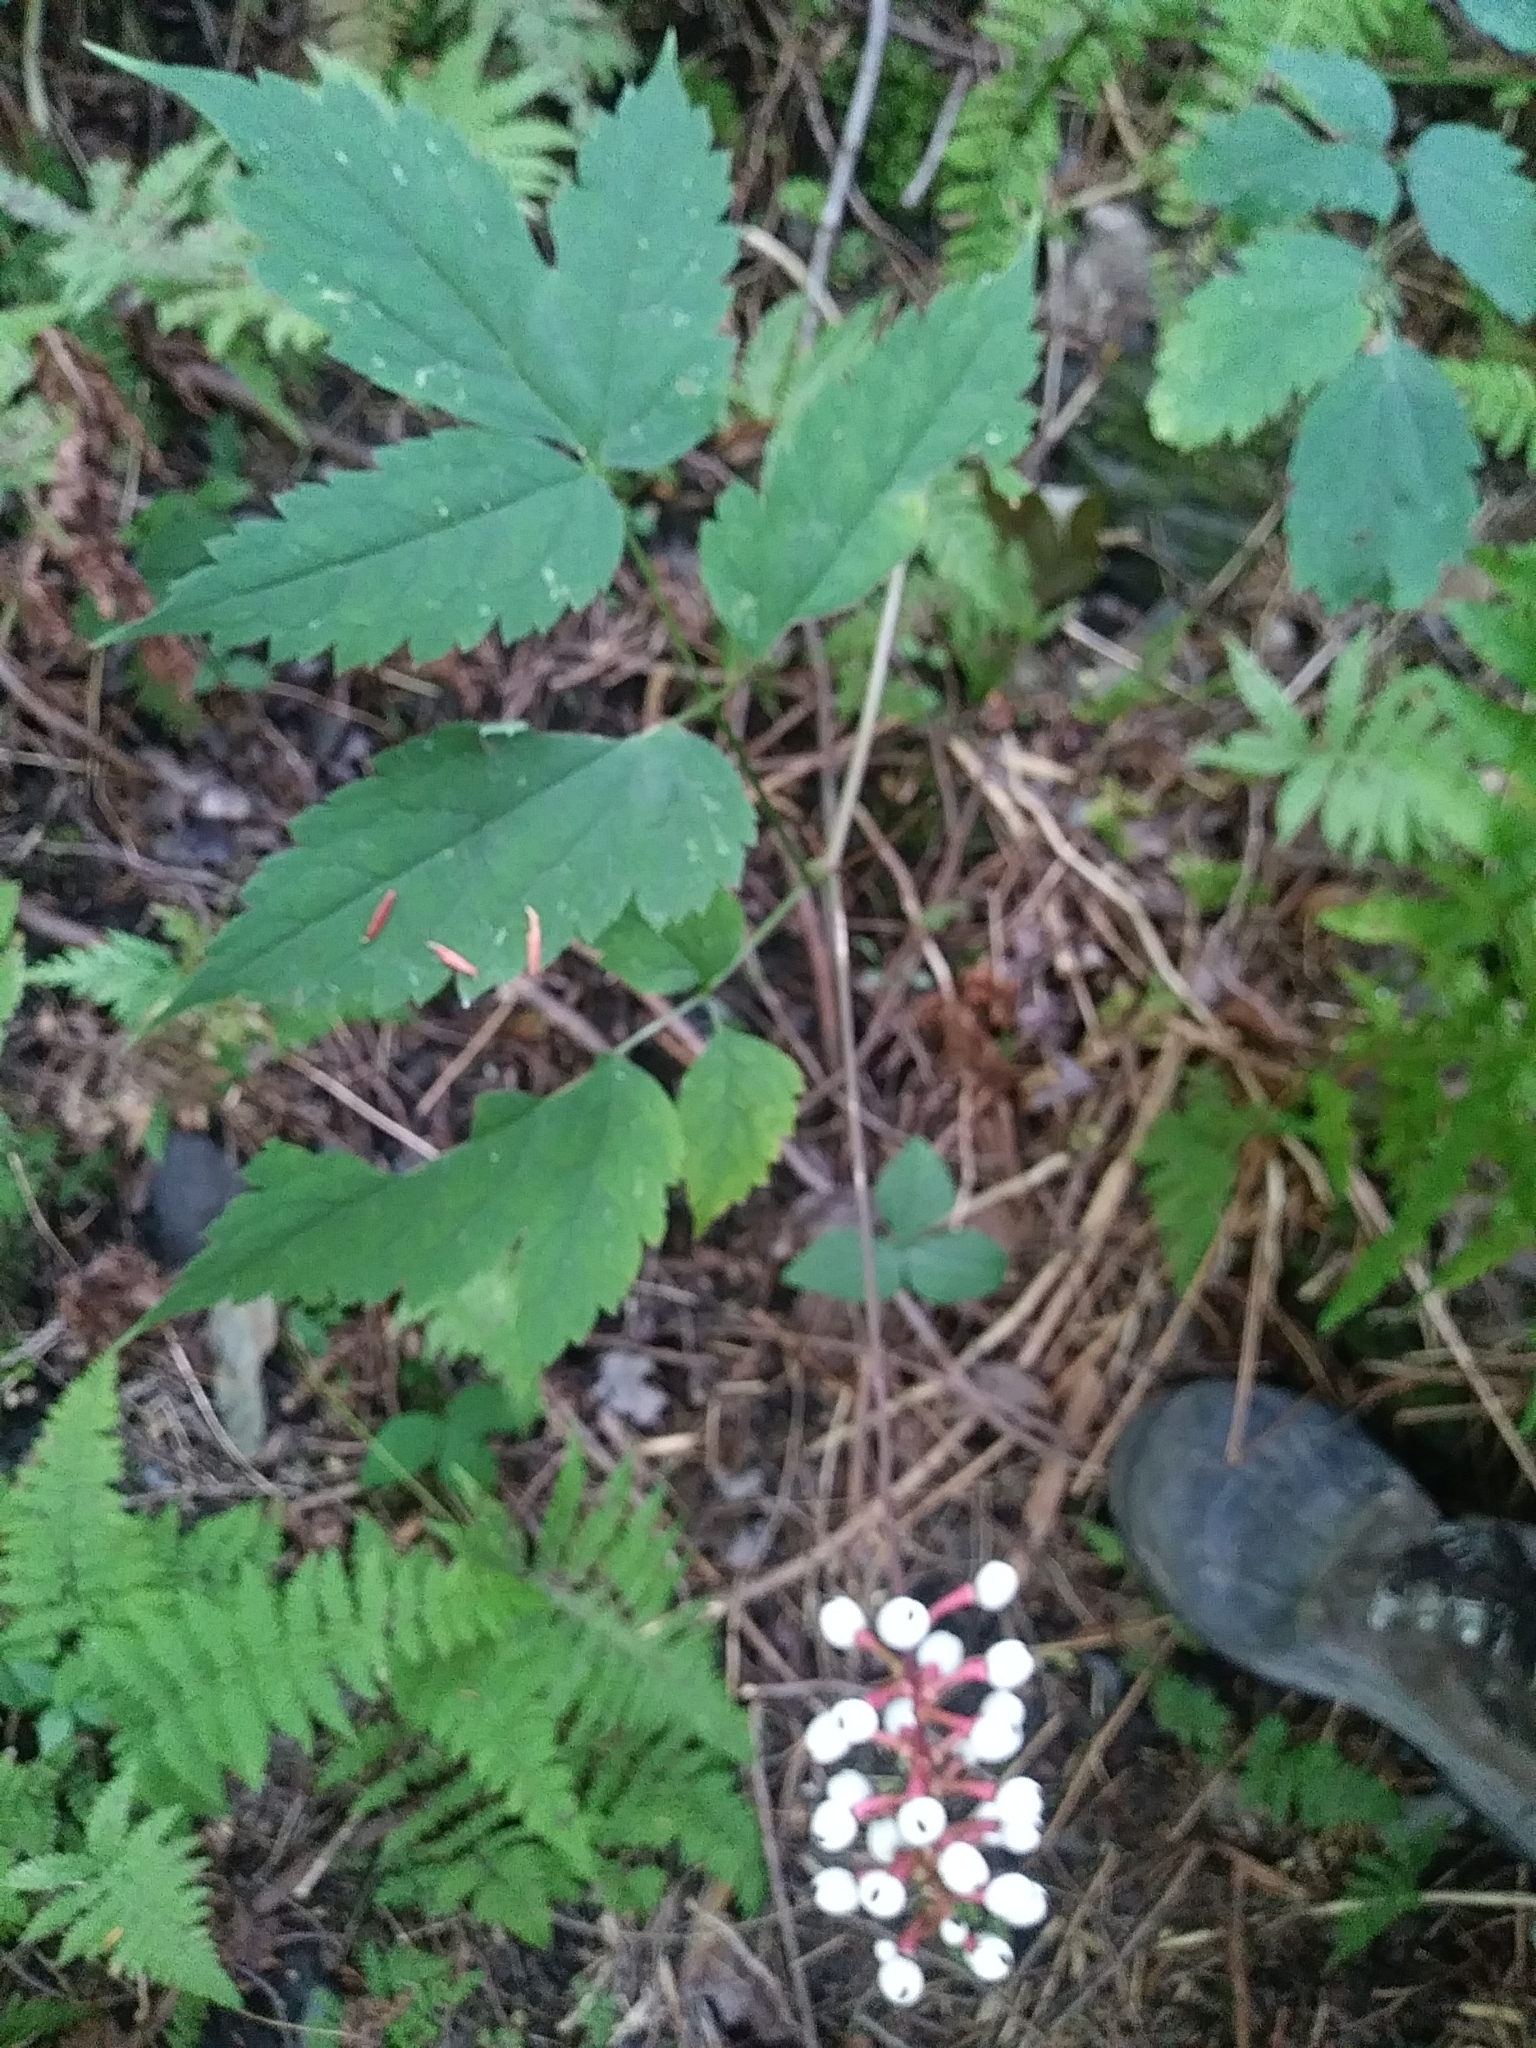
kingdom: Plantae
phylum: Tracheophyta
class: Magnoliopsida
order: Ranunculales
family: Ranunculaceae
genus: Actaea
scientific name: Actaea pachypoda
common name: Doll's-eyes
